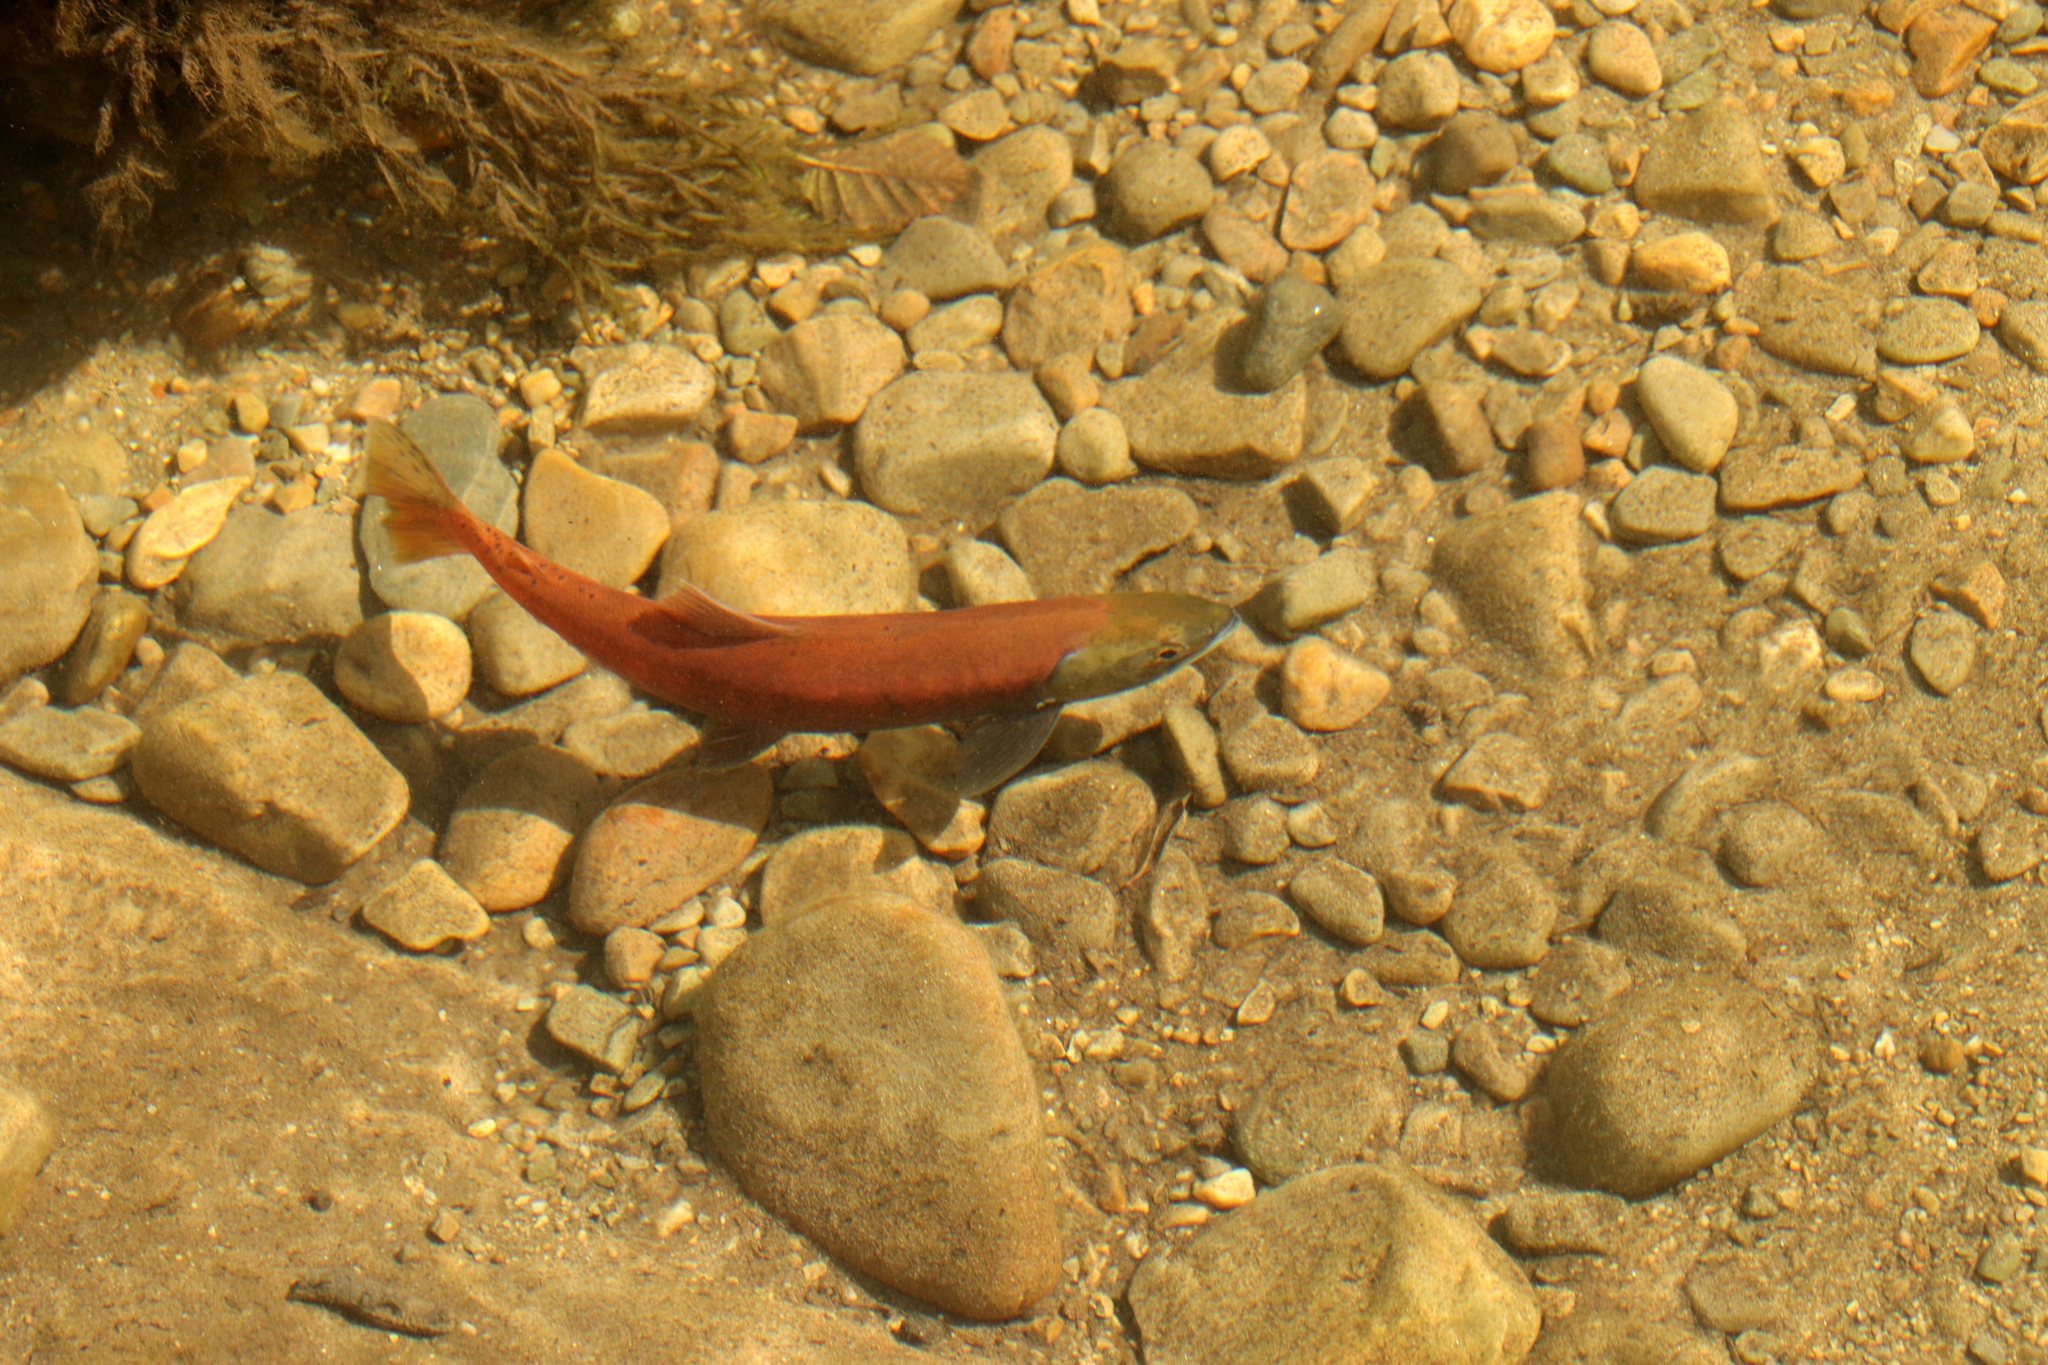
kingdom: Animalia
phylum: Chordata
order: Salmoniformes
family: Salmonidae
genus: Oncorhynchus
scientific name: Oncorhynchus nerka
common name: Sockeye salmon
